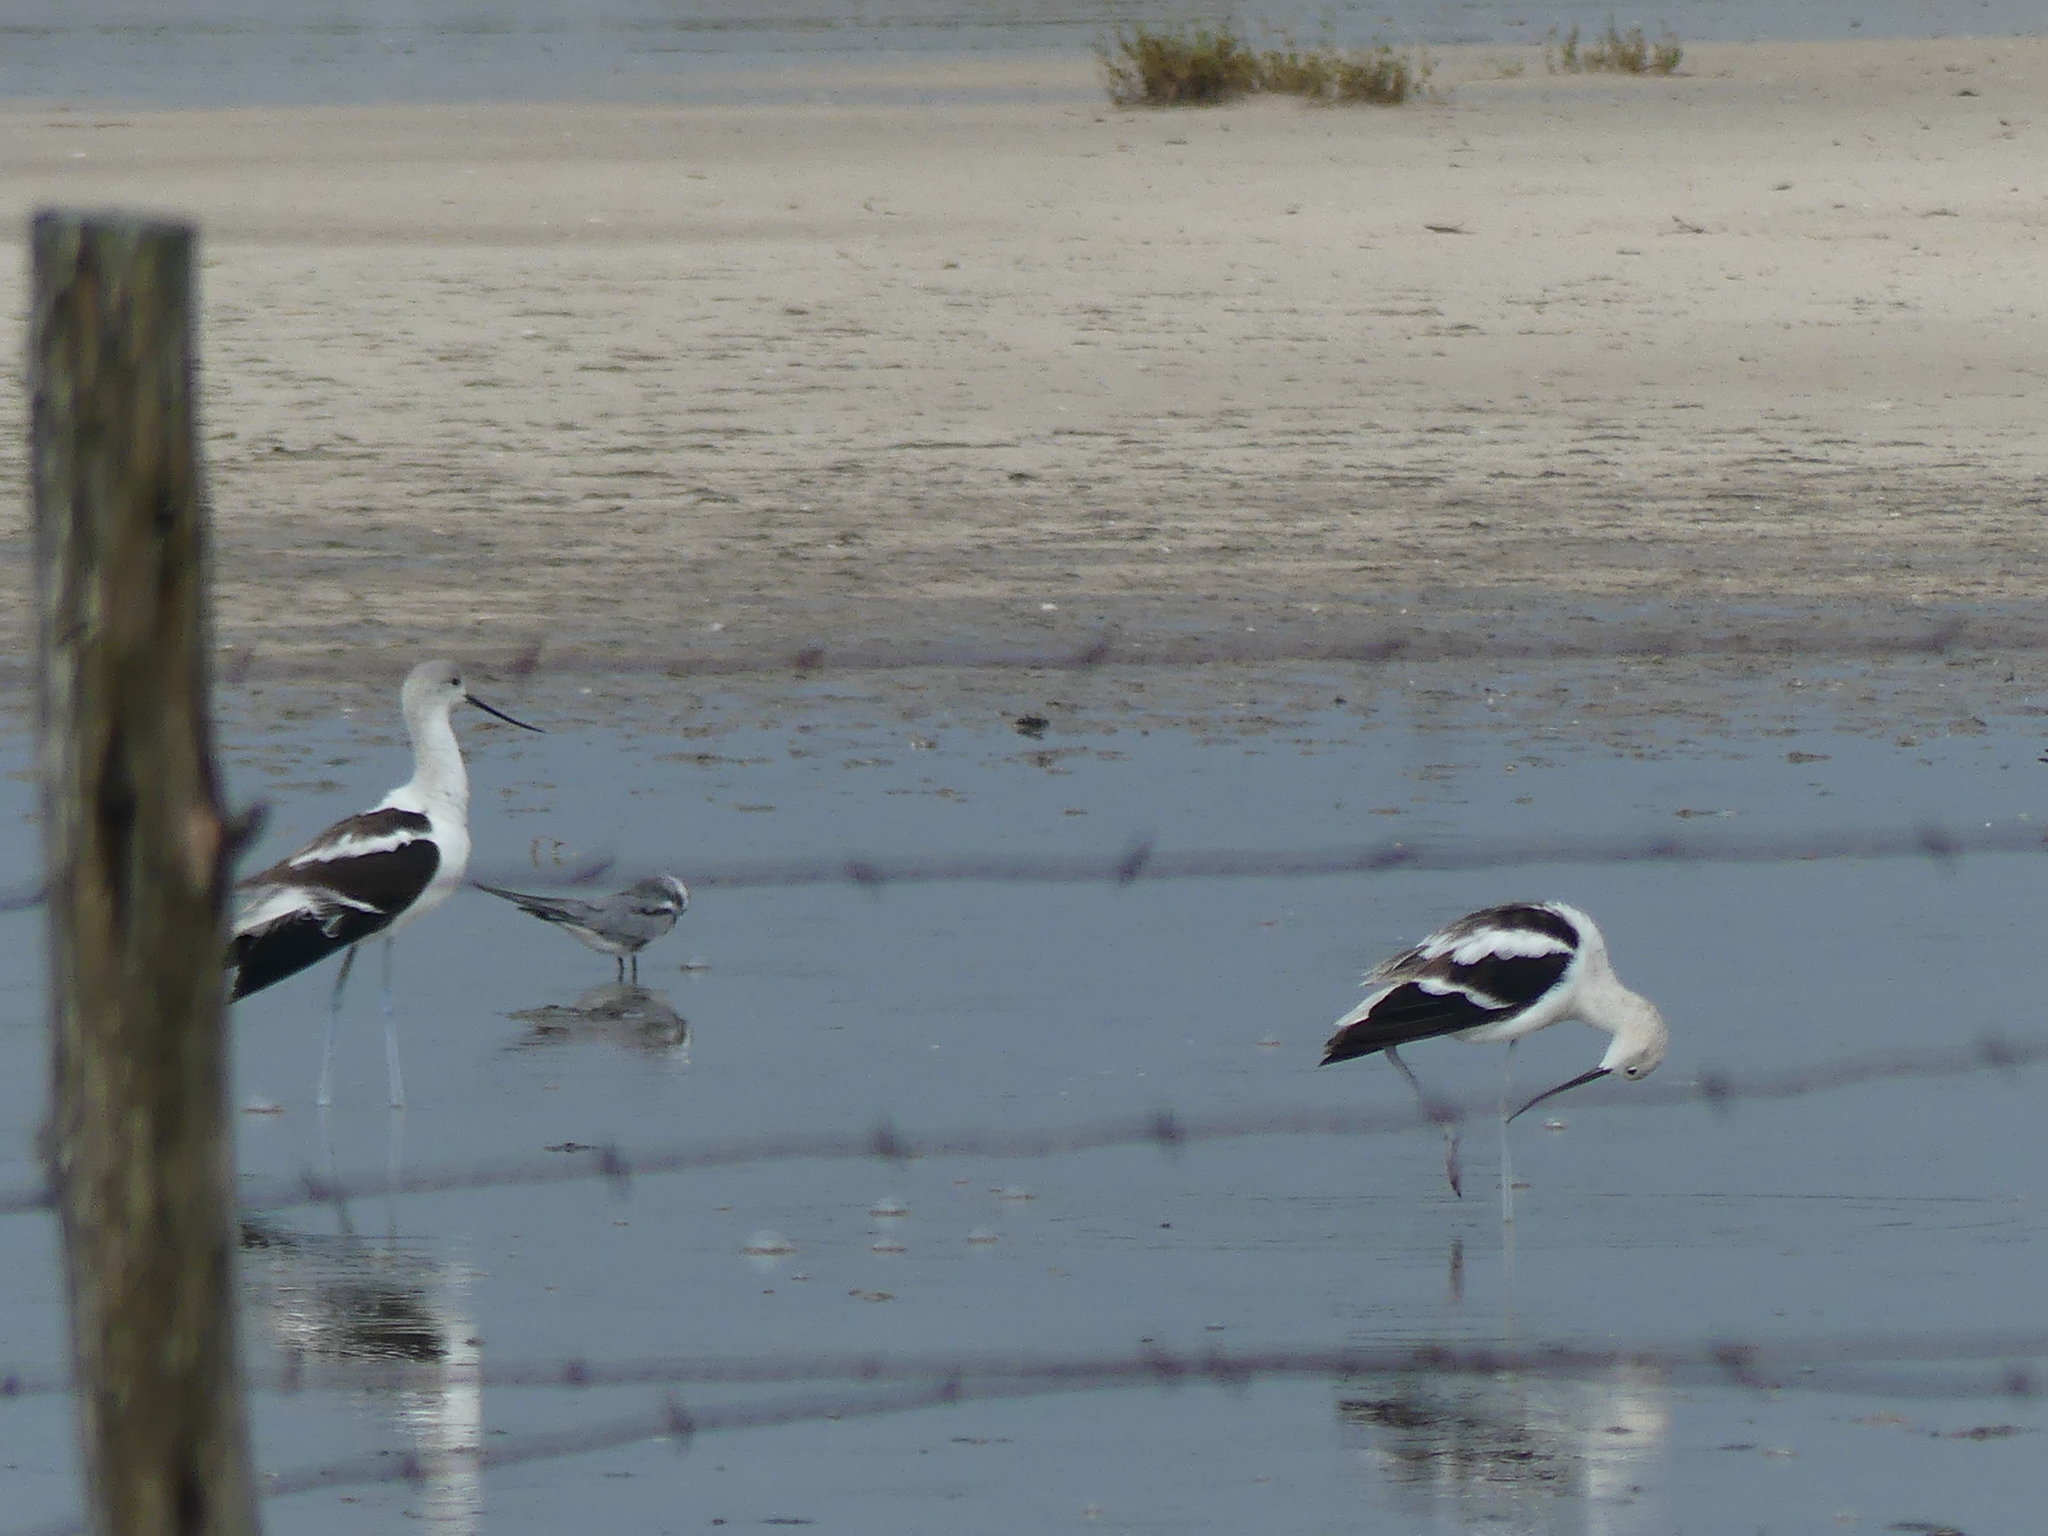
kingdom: Animalia
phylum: Chordata
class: Aves
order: Charadriiformes
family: Recurvirostridae
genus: Recurvirostra
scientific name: Recurvirostra americana
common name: American avocet
